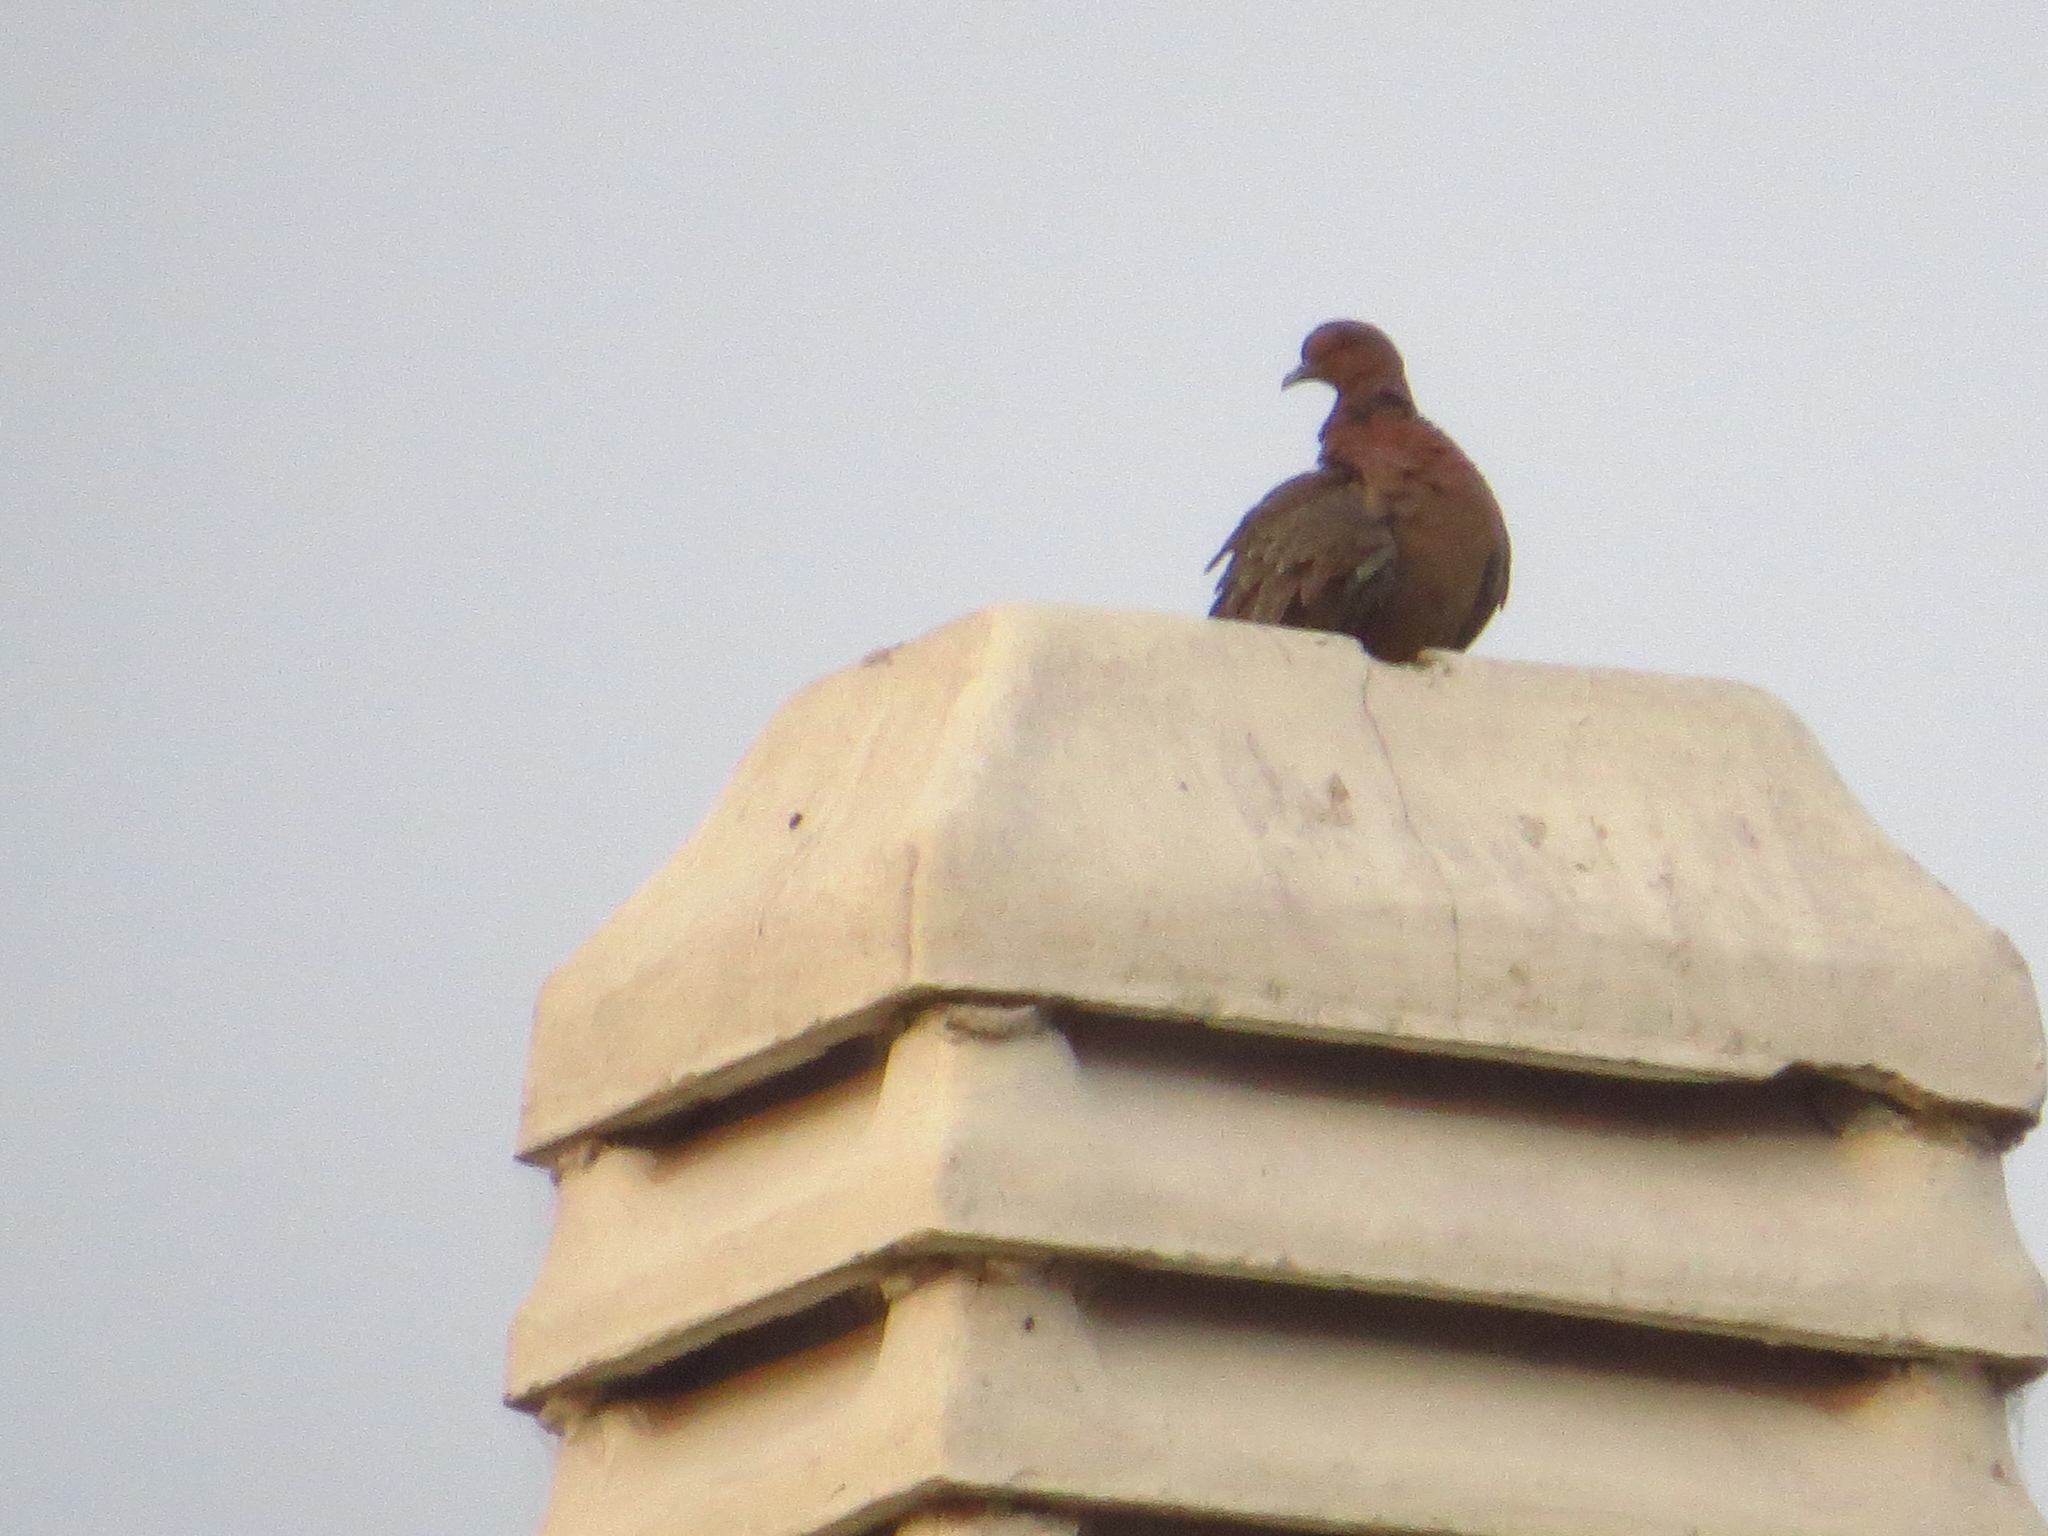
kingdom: Animalia
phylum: Chordata
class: Aves
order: Columbiformes
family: Columbidae
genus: Patagioenas
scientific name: Patagioenas picazuro
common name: Picazuro pigeon
